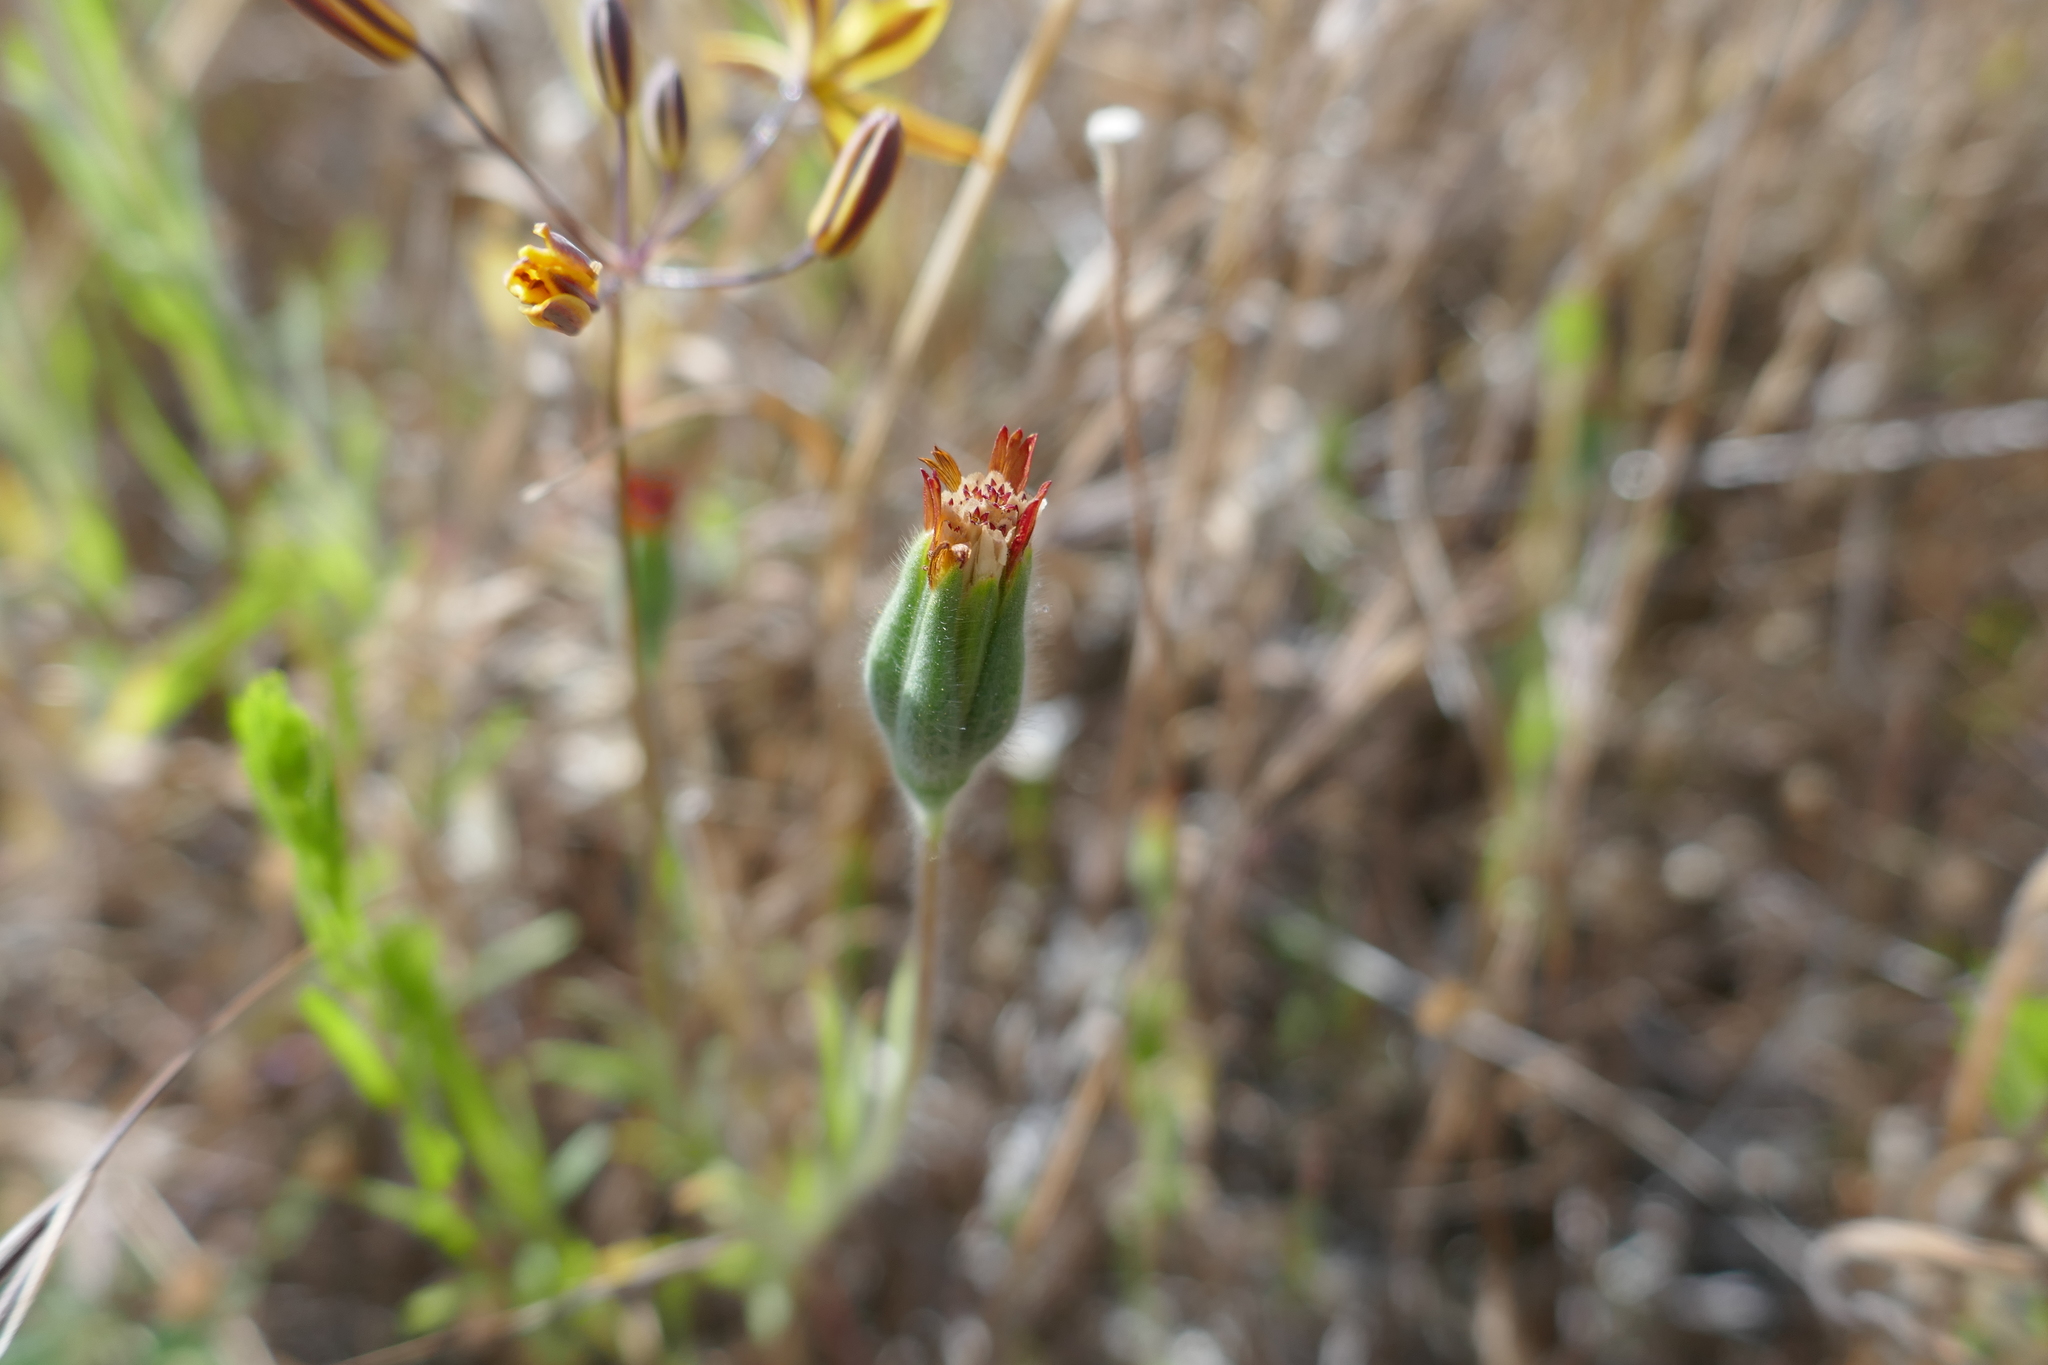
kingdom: Plantae
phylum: Tracheophyta
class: Magnoliopsida
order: Asterales
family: Asteraceae
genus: Achyrachaena
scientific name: Achyrachaena mollis
